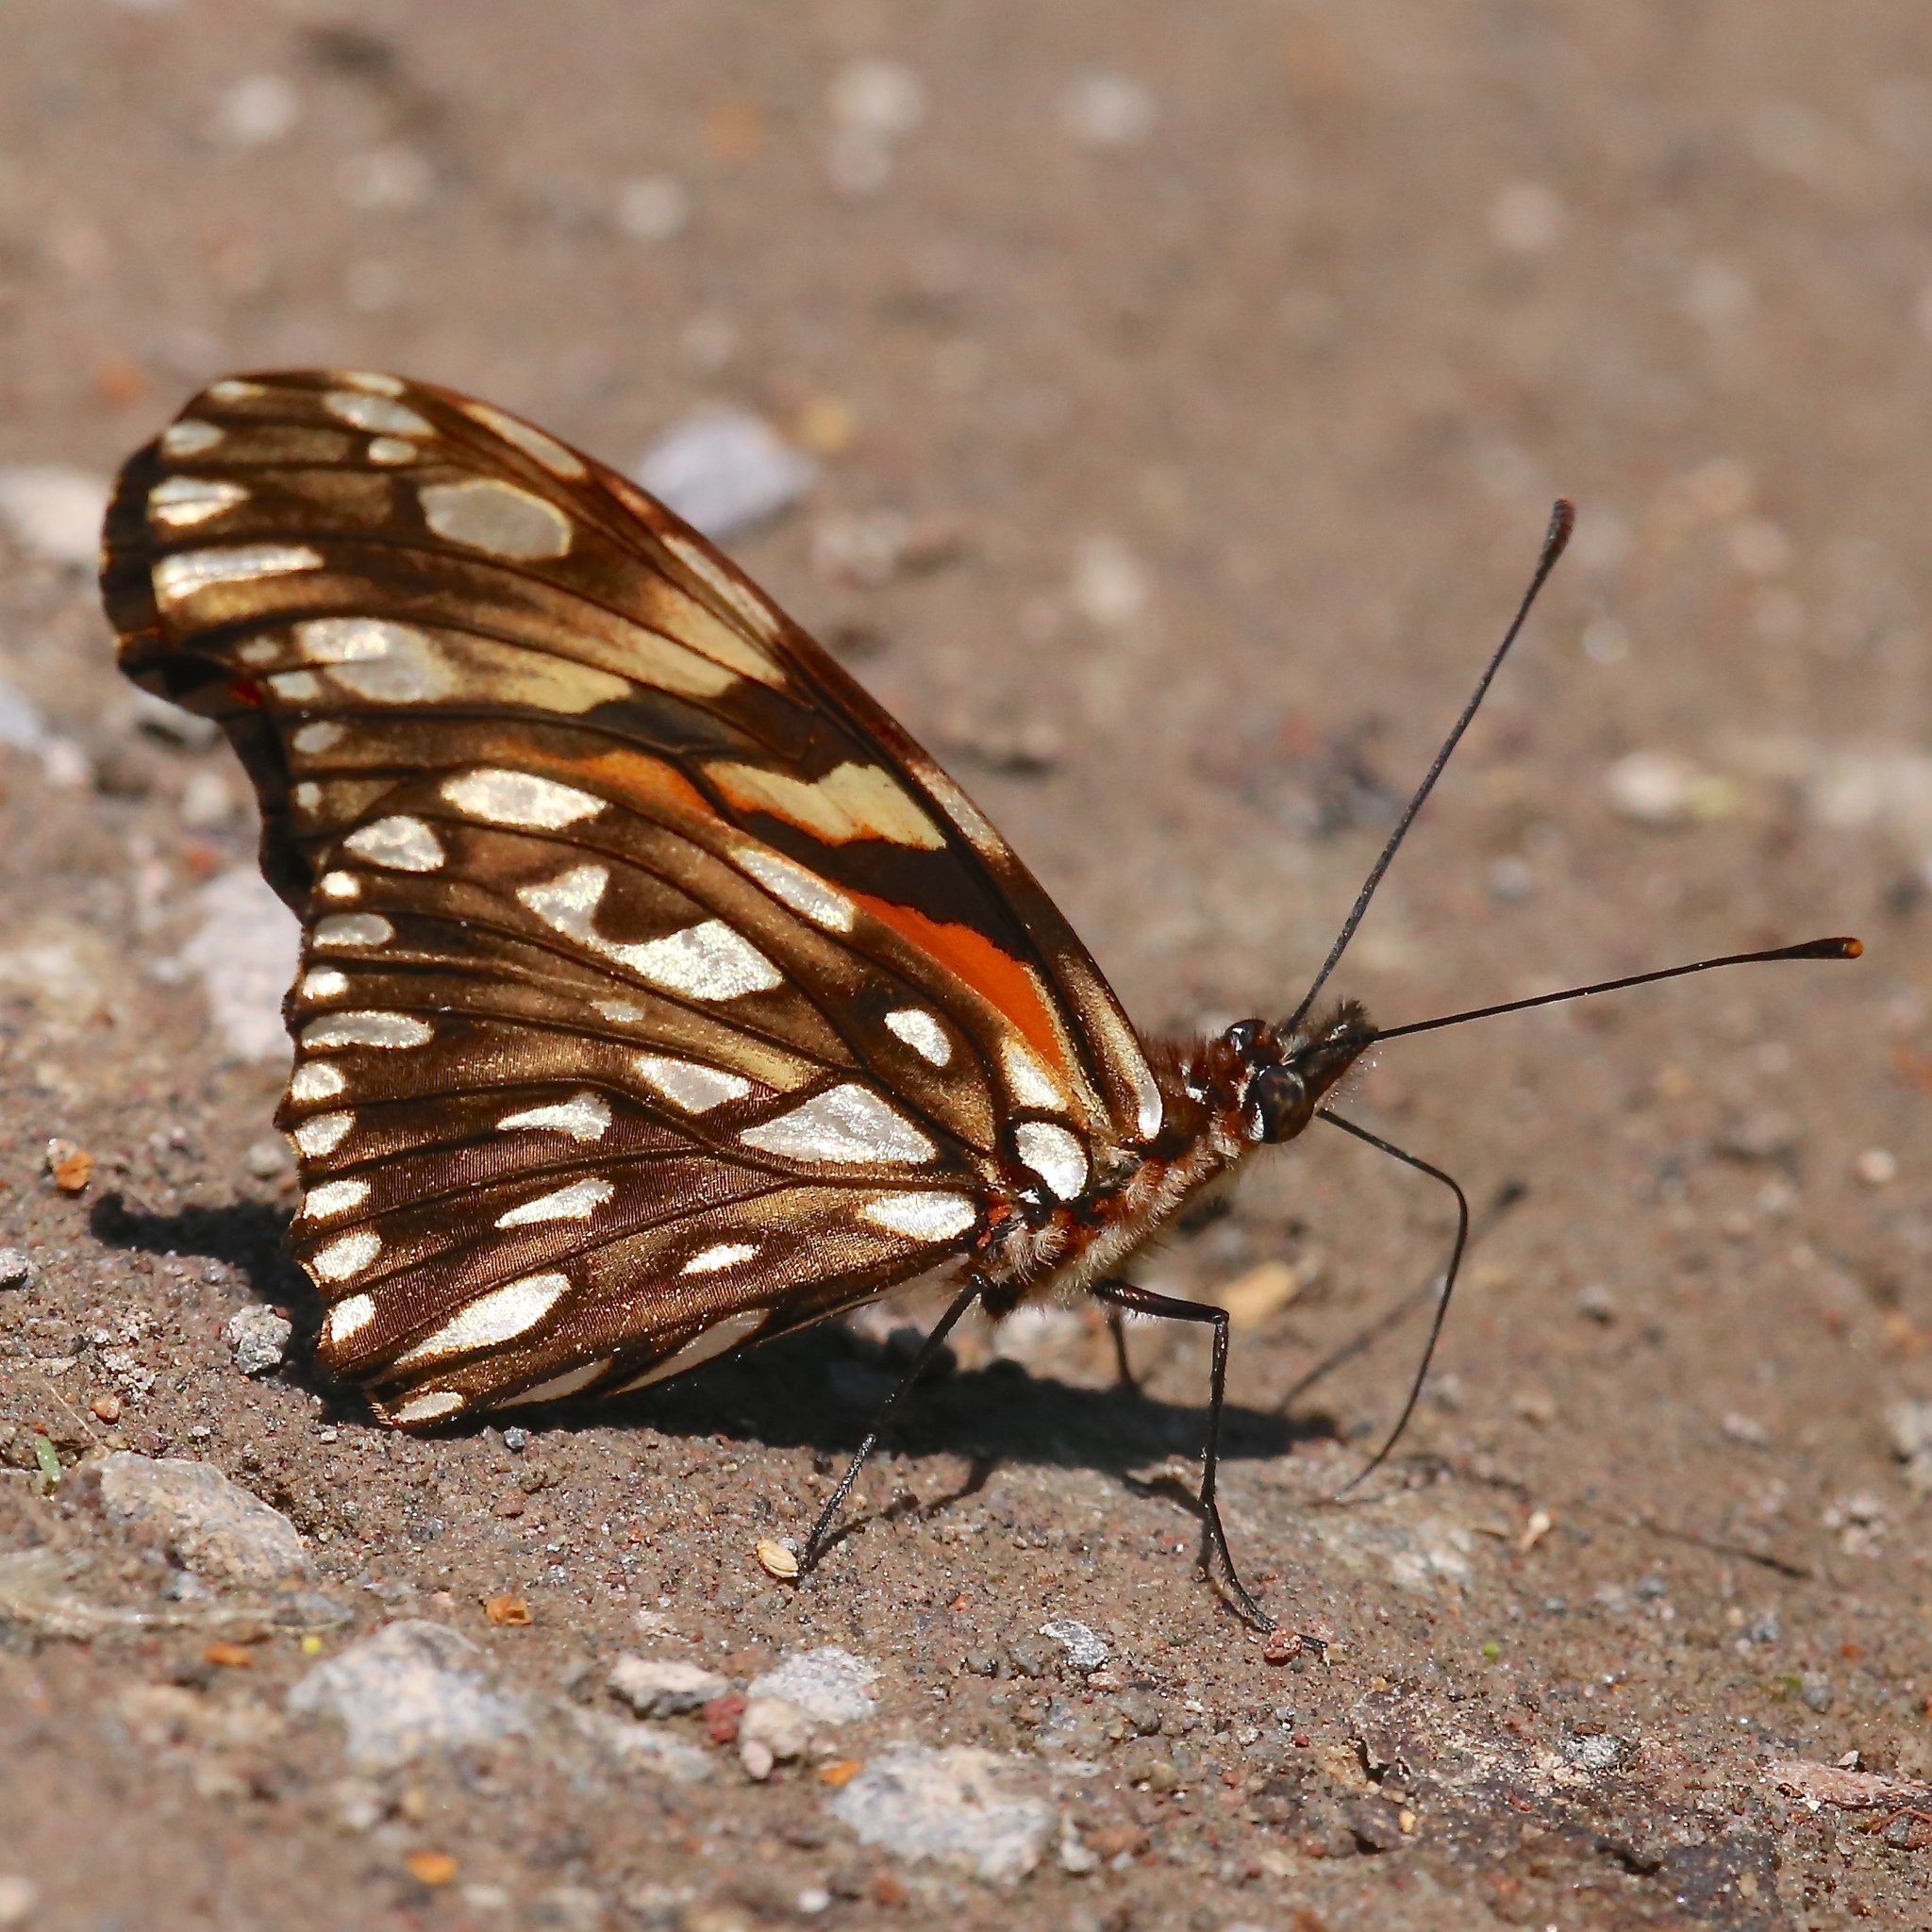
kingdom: Animalia
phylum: Arthropoda
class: Insecta
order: Lepidoptera
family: Nymphalidae
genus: Dione
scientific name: Dione juno
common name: Juno silverspot
